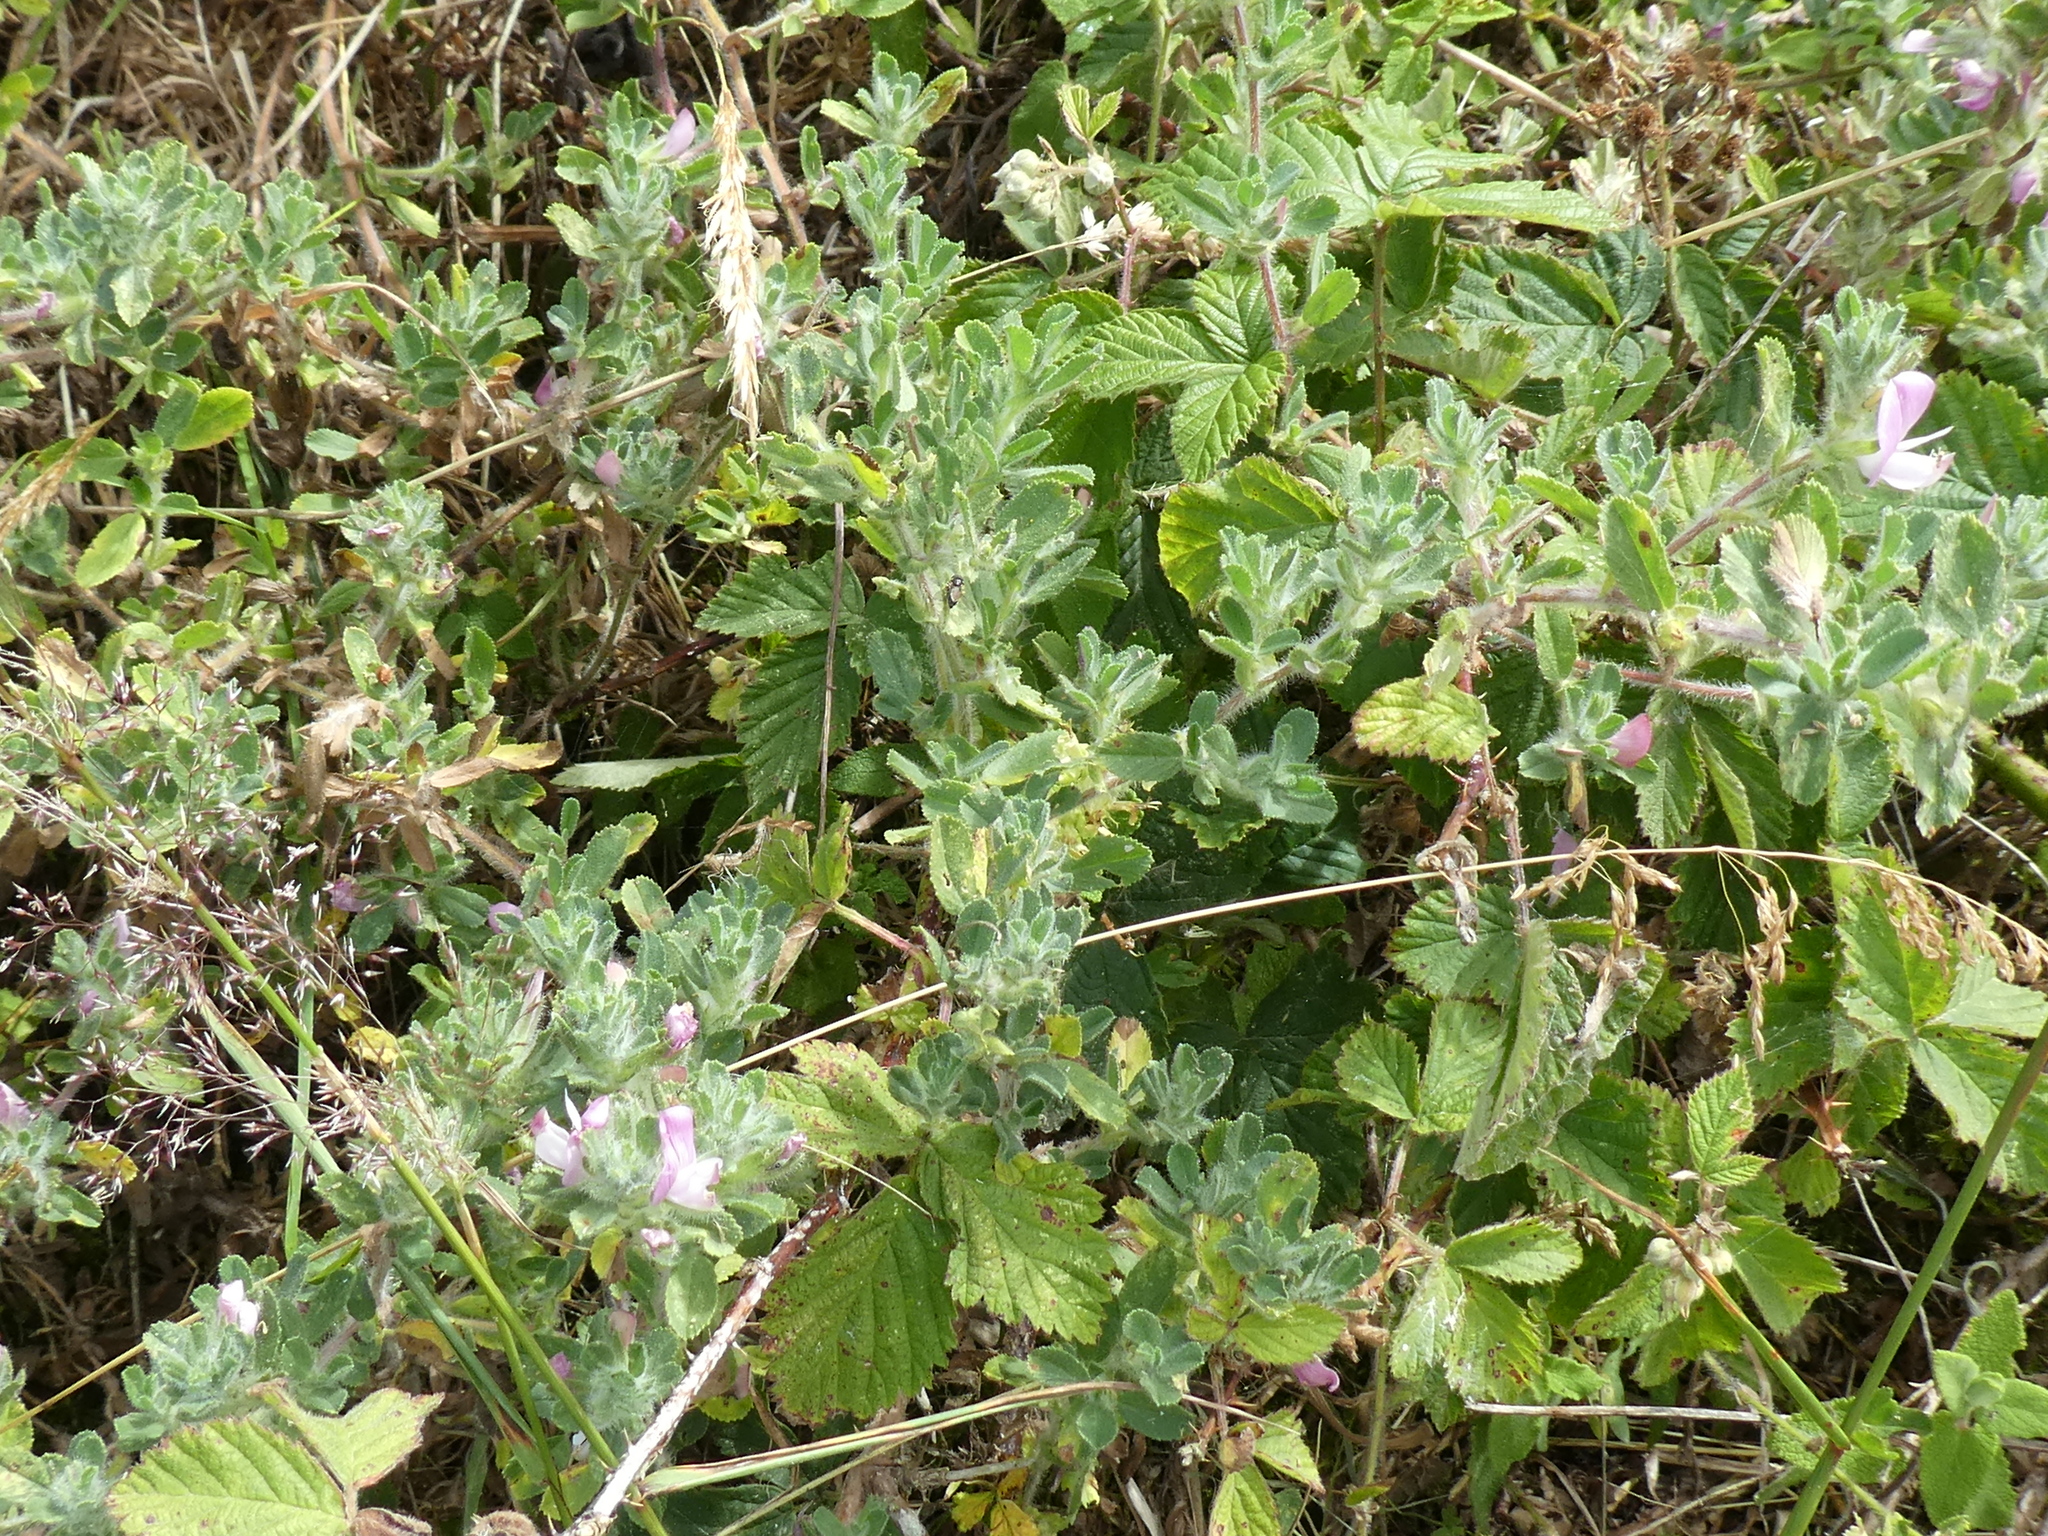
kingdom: Plantae
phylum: Tracheophyta
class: Magnoliopsida
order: Fabales
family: Fabaceae
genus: Ononis
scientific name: Ononis spinosa
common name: Spiny restharrow
